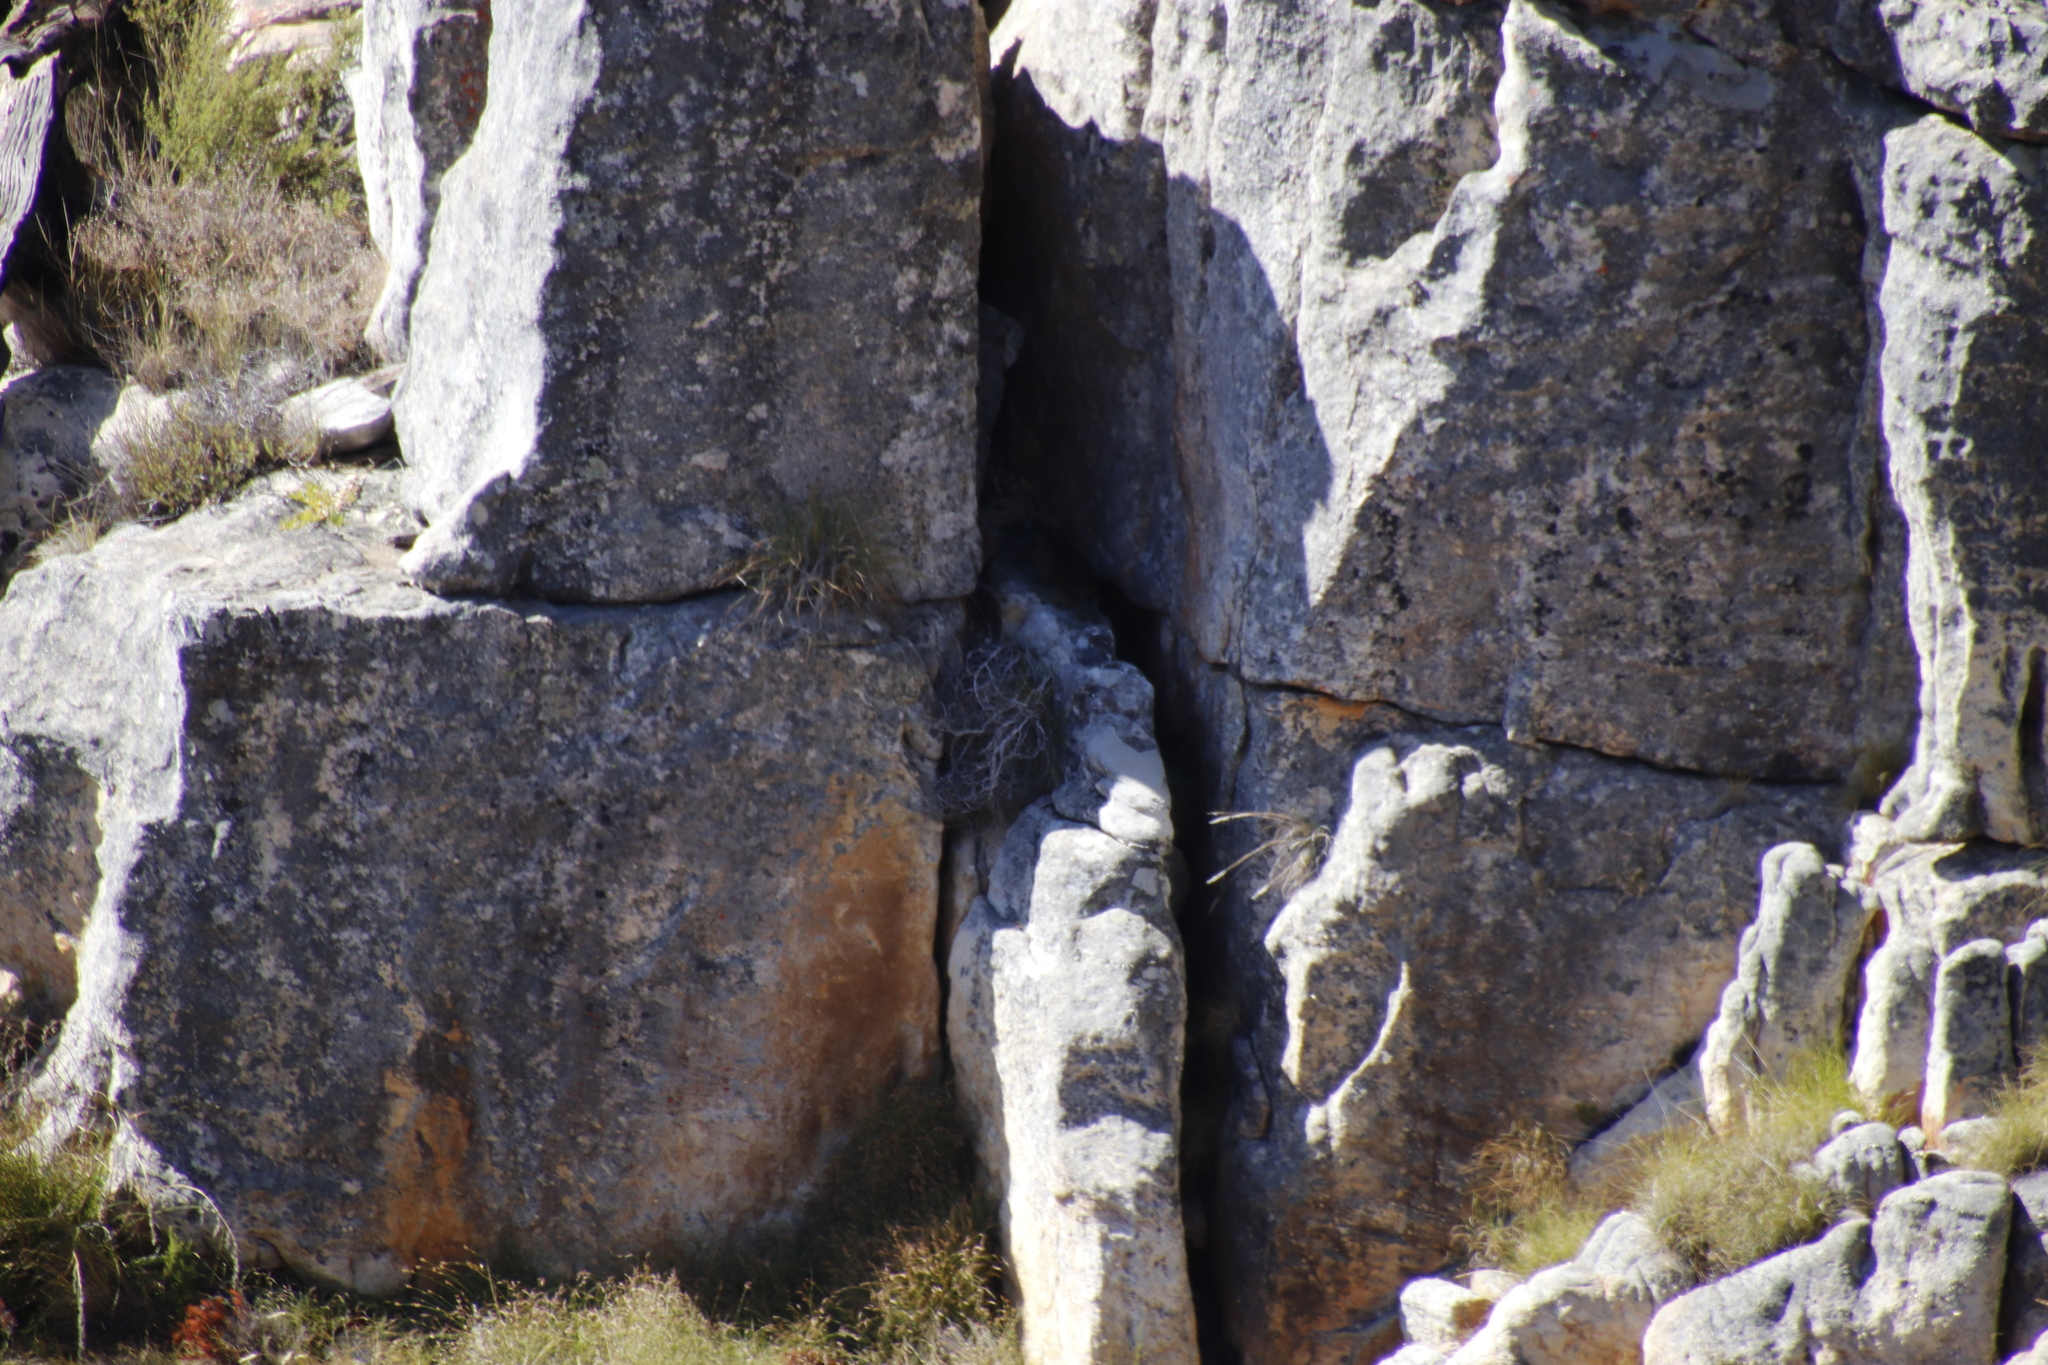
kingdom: Animalia
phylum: Chordata
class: Mammalia
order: Hyracoidea
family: Procaviidae
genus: Procavia
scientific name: Procavia capensis
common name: Rock hyrax
